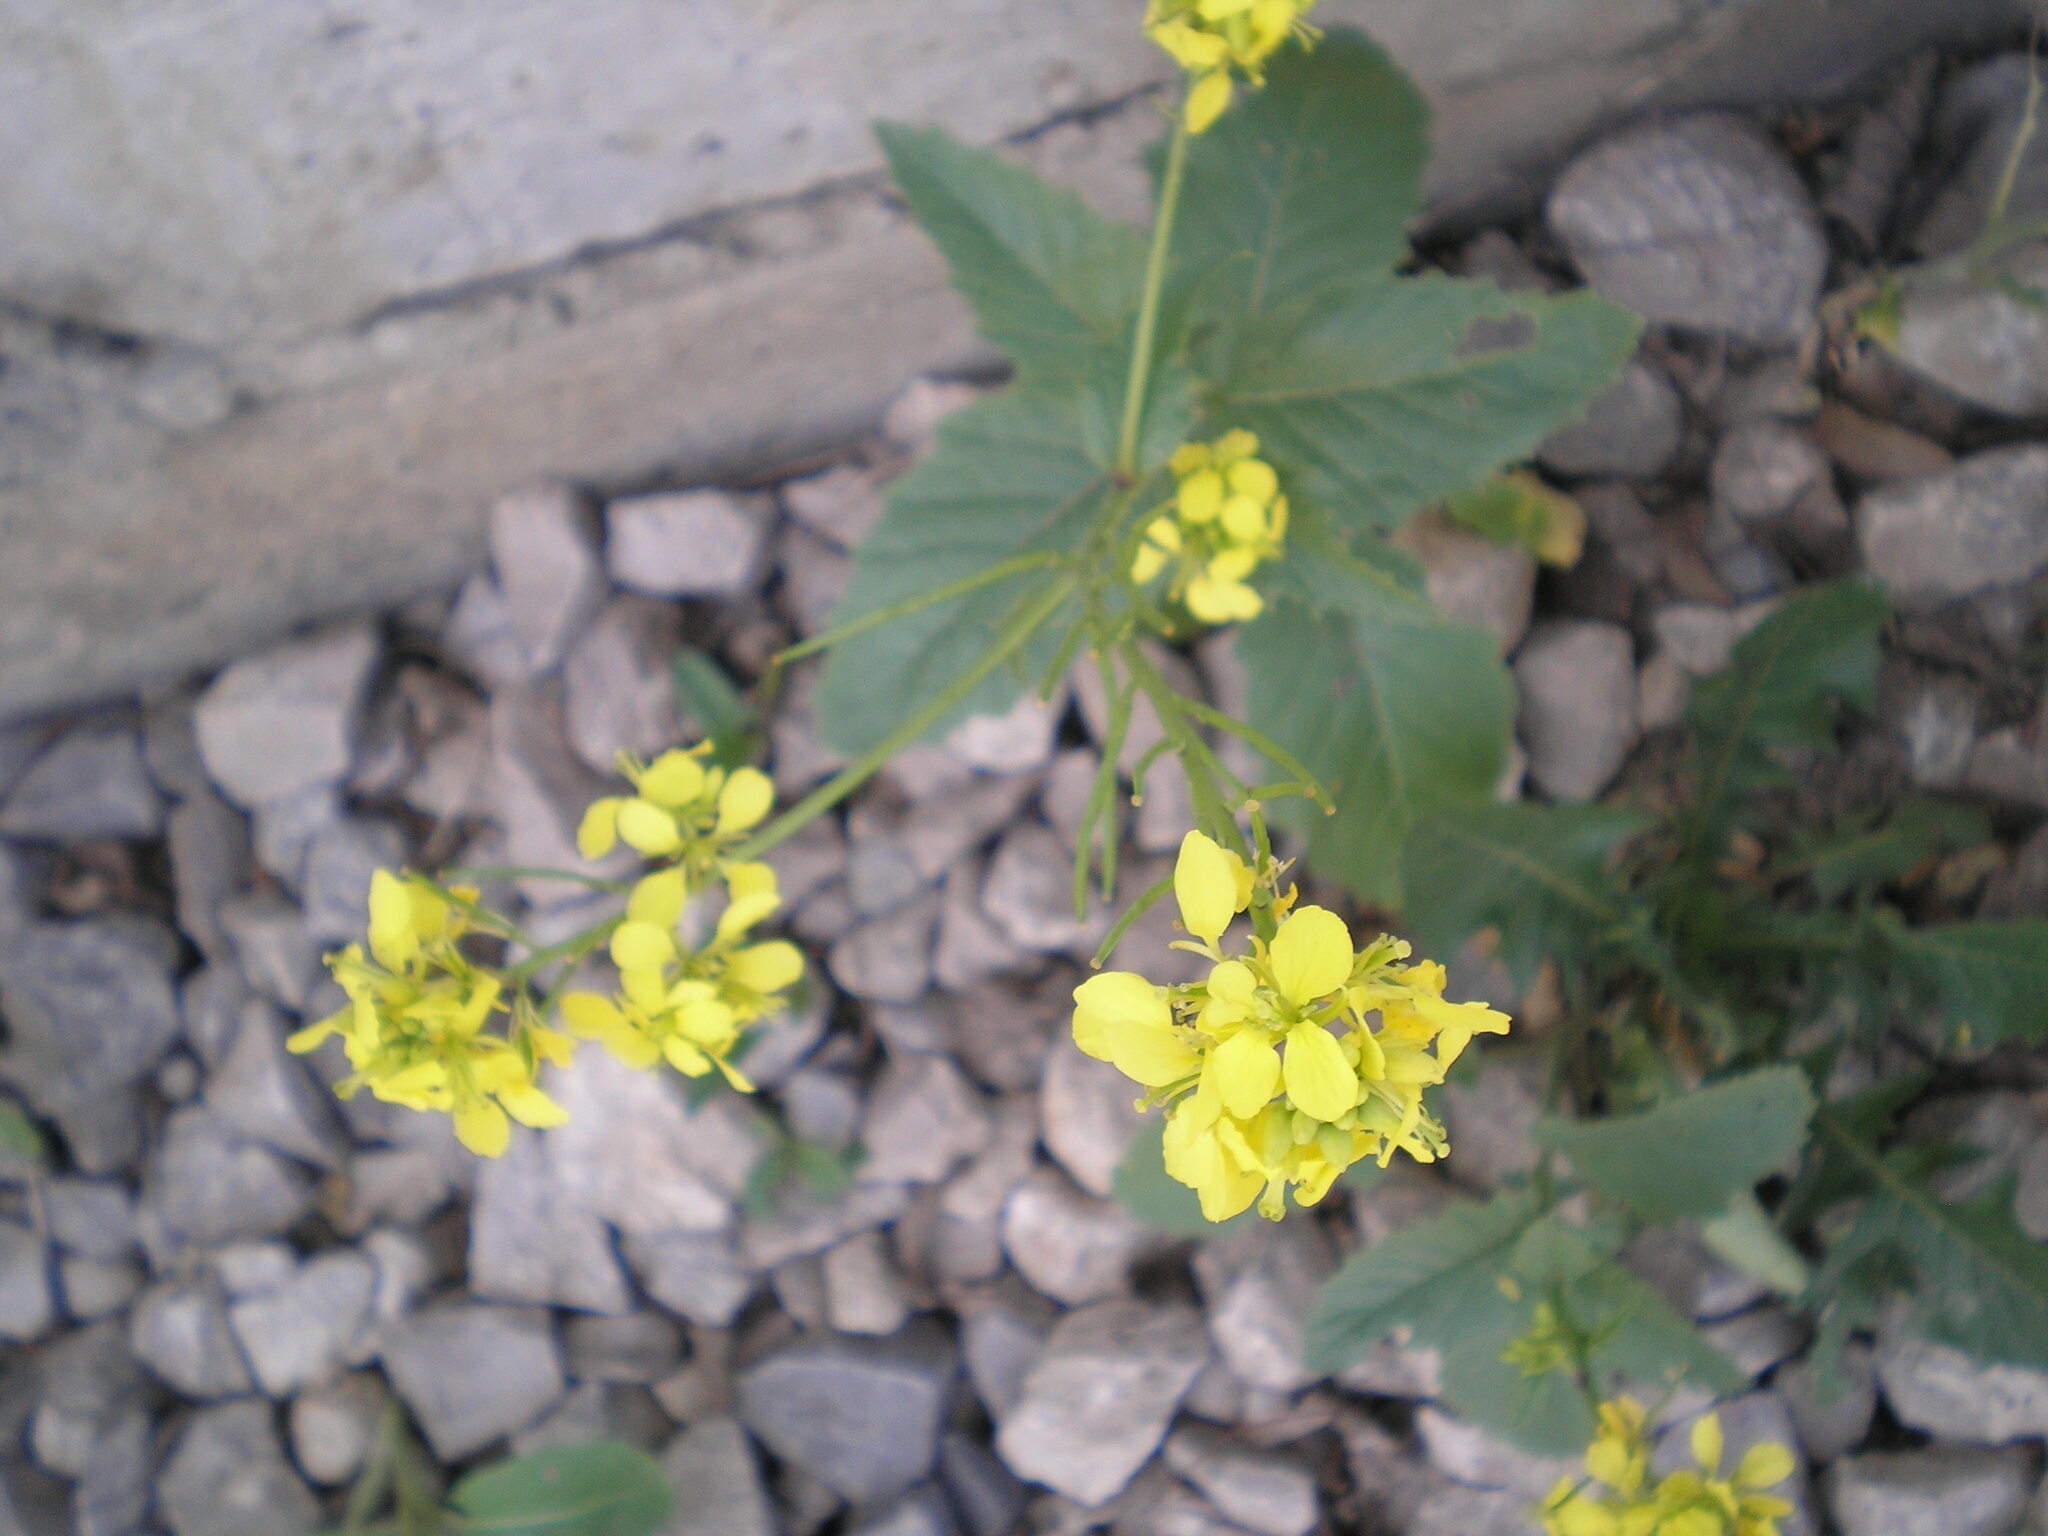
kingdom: Plantae
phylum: Tracheophyta
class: Magnoliopsida
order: Brassicales
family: Brassicaceae
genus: Sinapis
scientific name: Sinapis arvensis
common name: Charlock
